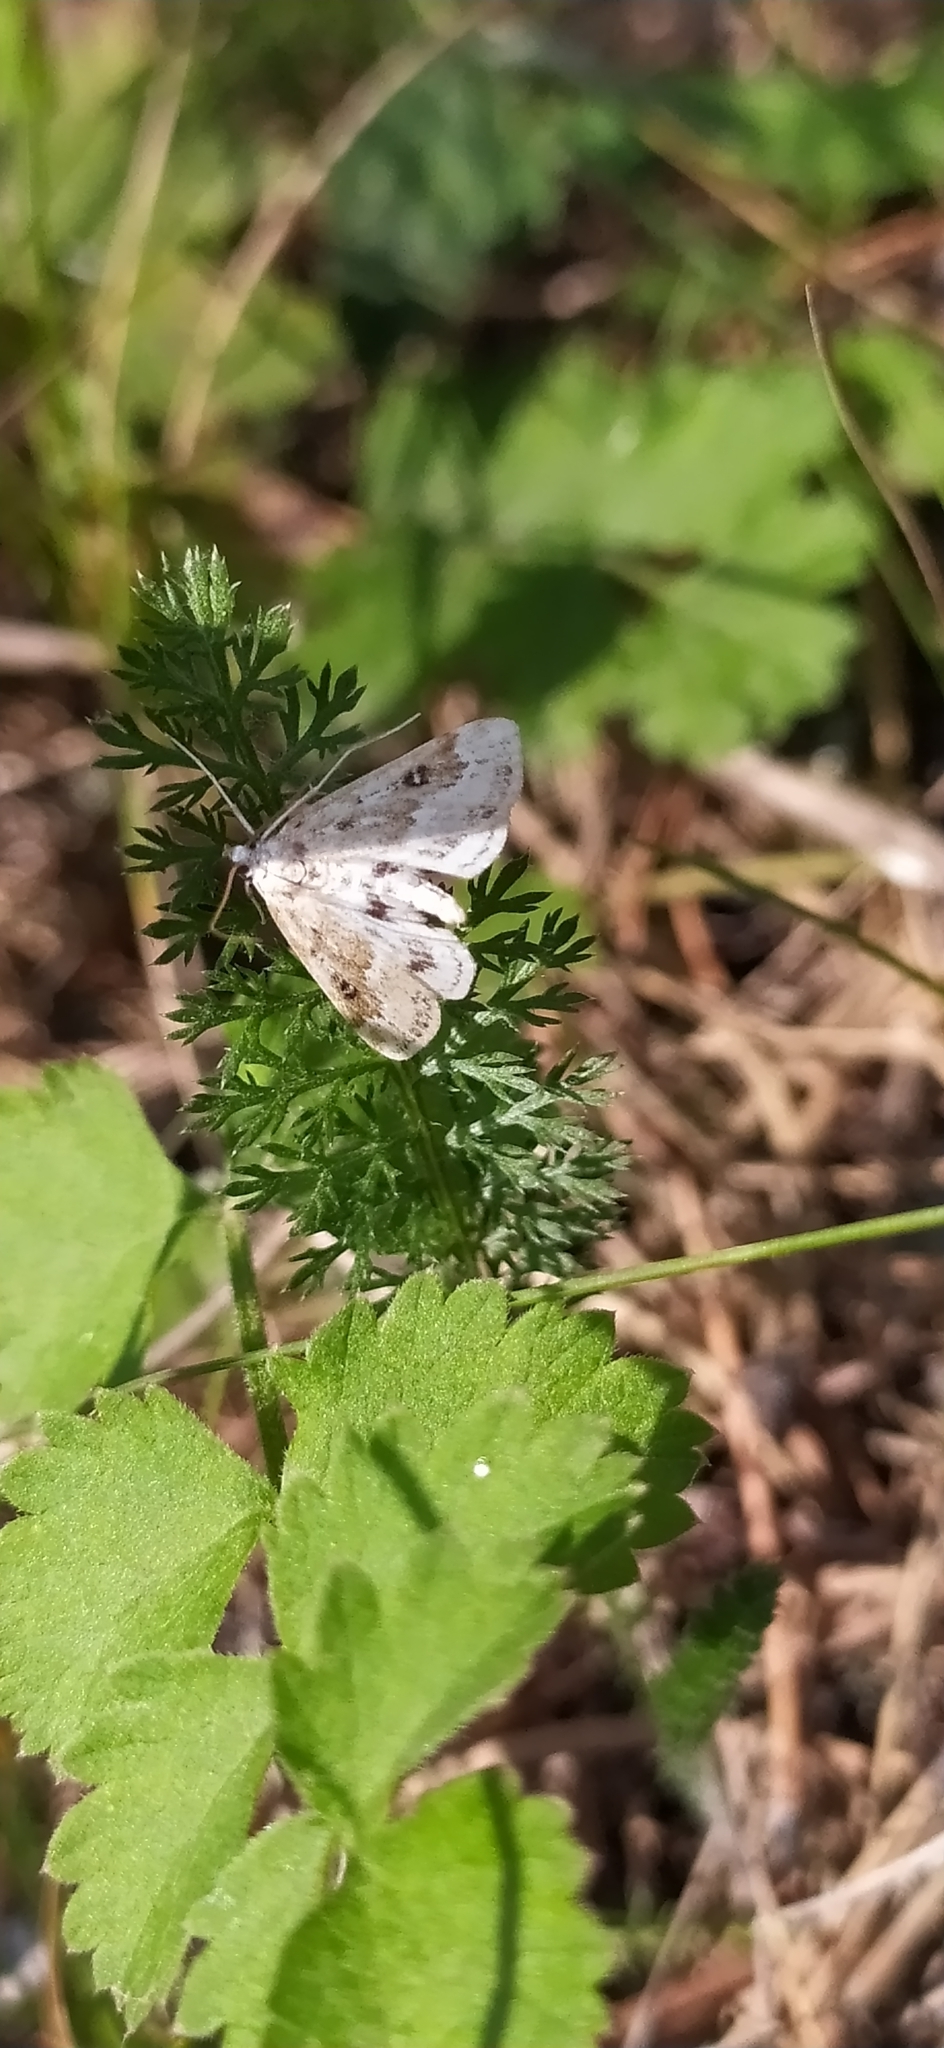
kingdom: Animalia
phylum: Arthropoda
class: Insecta
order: Lepidoptera
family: Crambidae
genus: Parapoynx
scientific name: Parapoynx stratiotata
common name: Ringed china-mark
